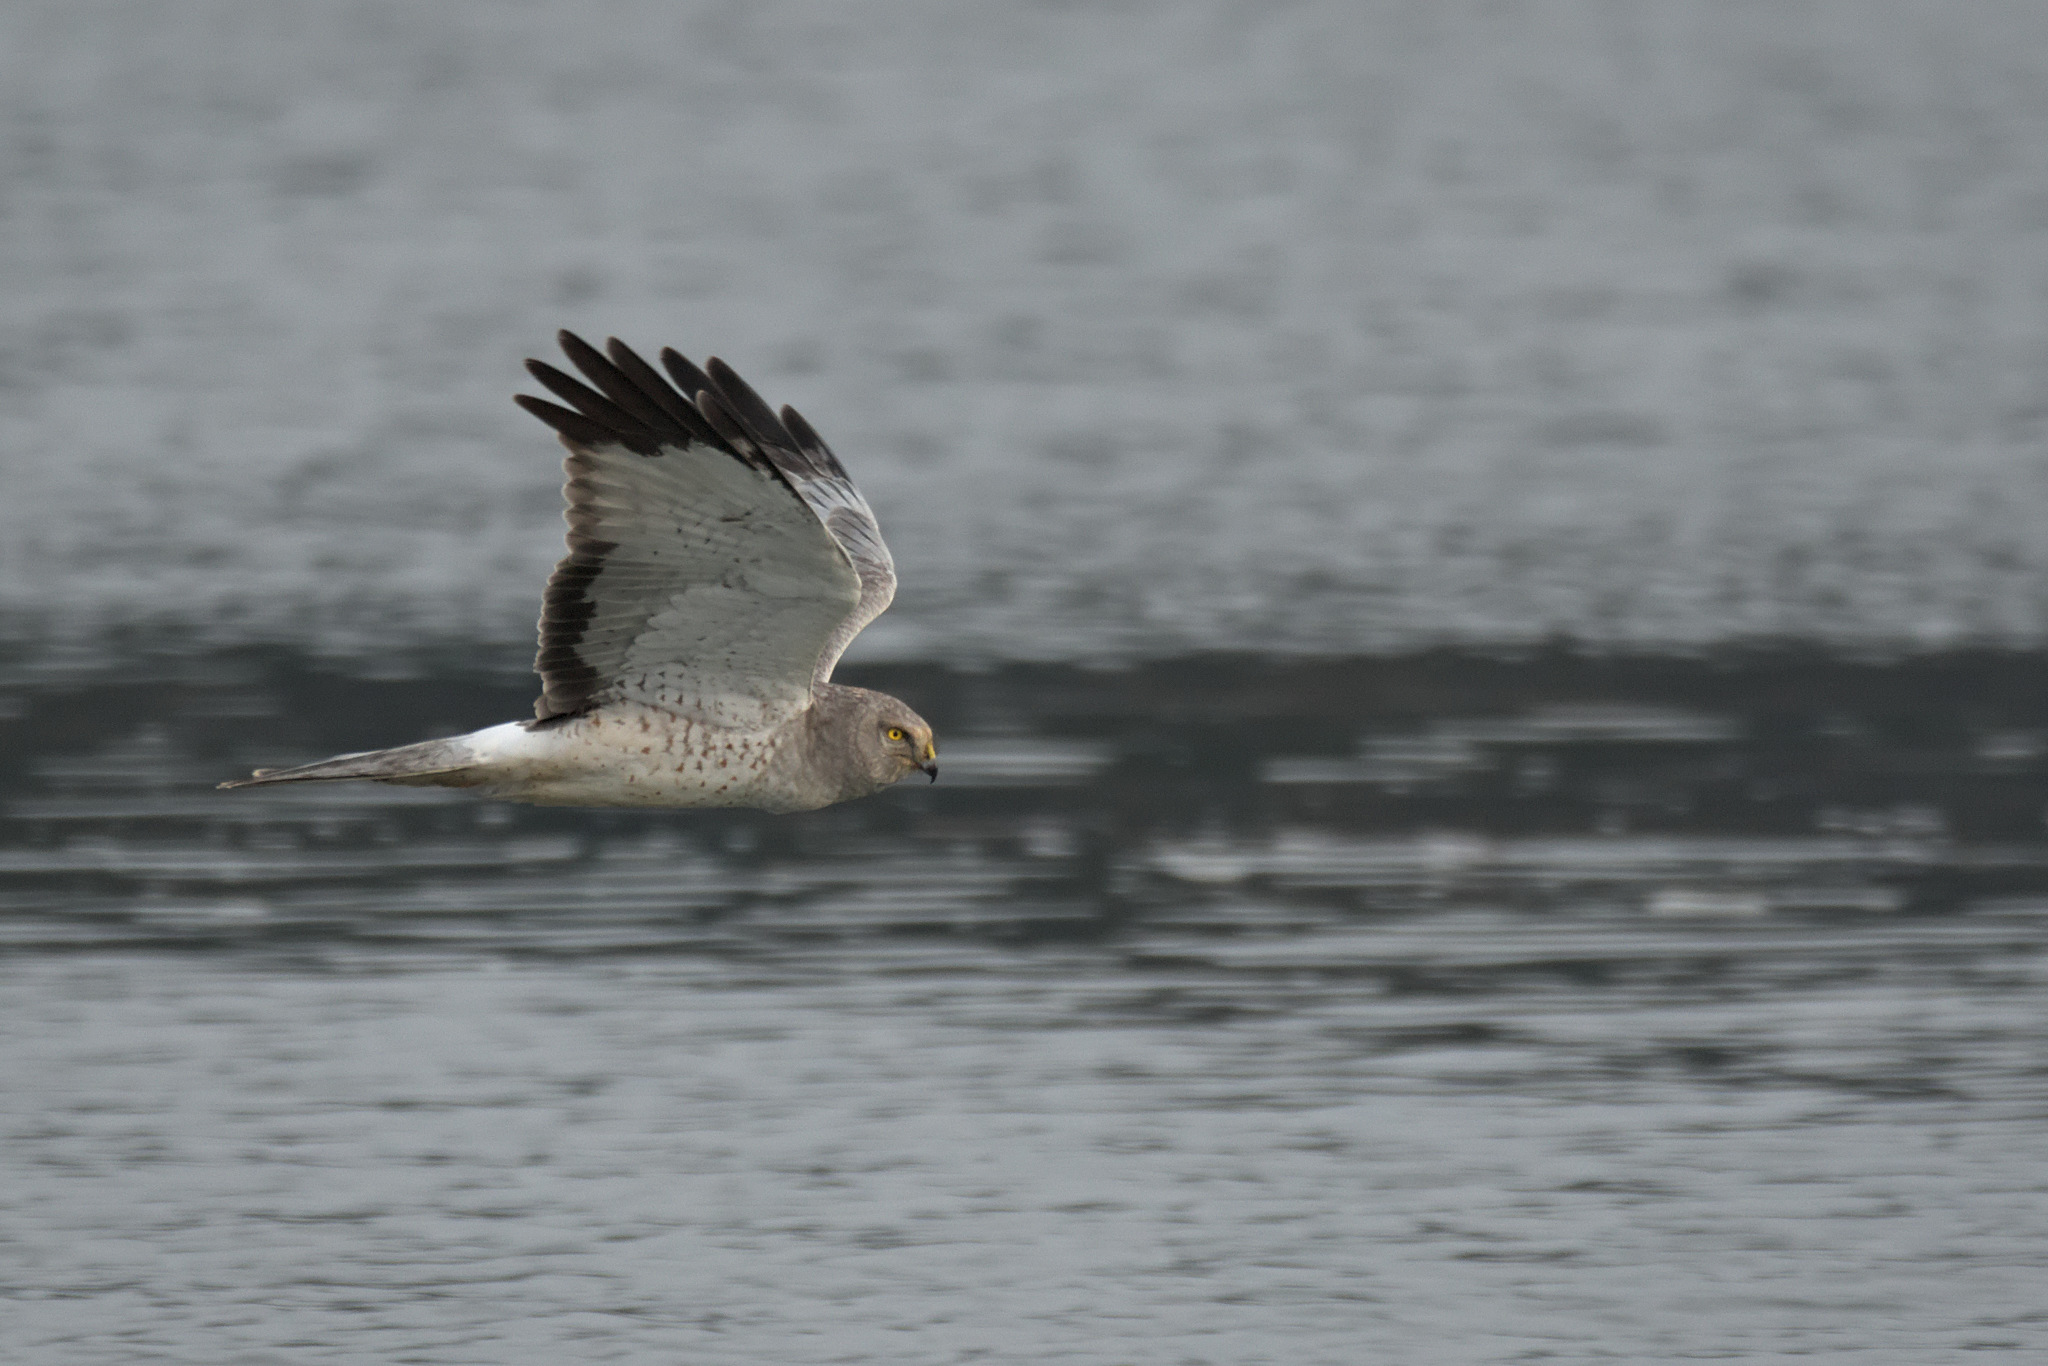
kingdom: Animalia
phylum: Chordata
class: Aves
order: Accipitriformes
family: Accipitridae
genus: Circus
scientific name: Circus cyaneus
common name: Hen harrier
